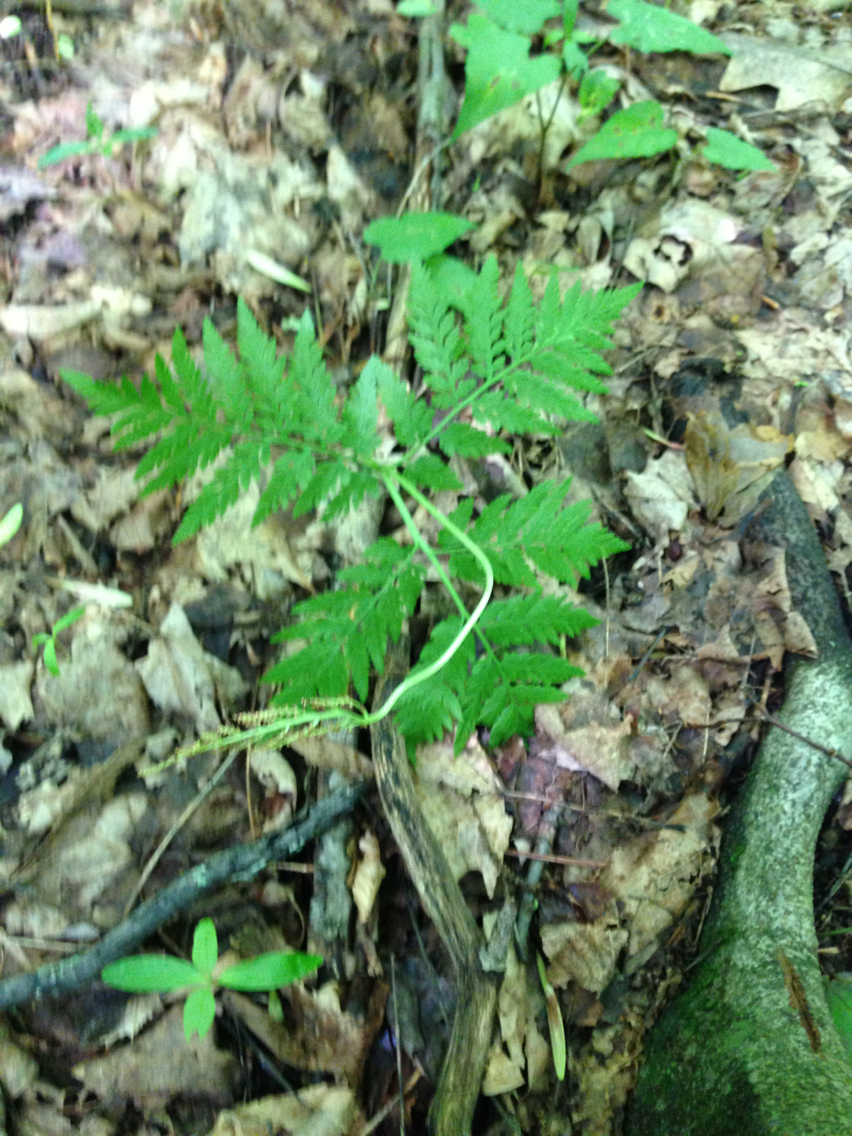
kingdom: Plantae
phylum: Tracheophyta
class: Polypodiopsida
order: Ophioglossales
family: Ophioglossaceae
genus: Botrypus
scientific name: Botrypus virginianus
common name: Common grapefern
